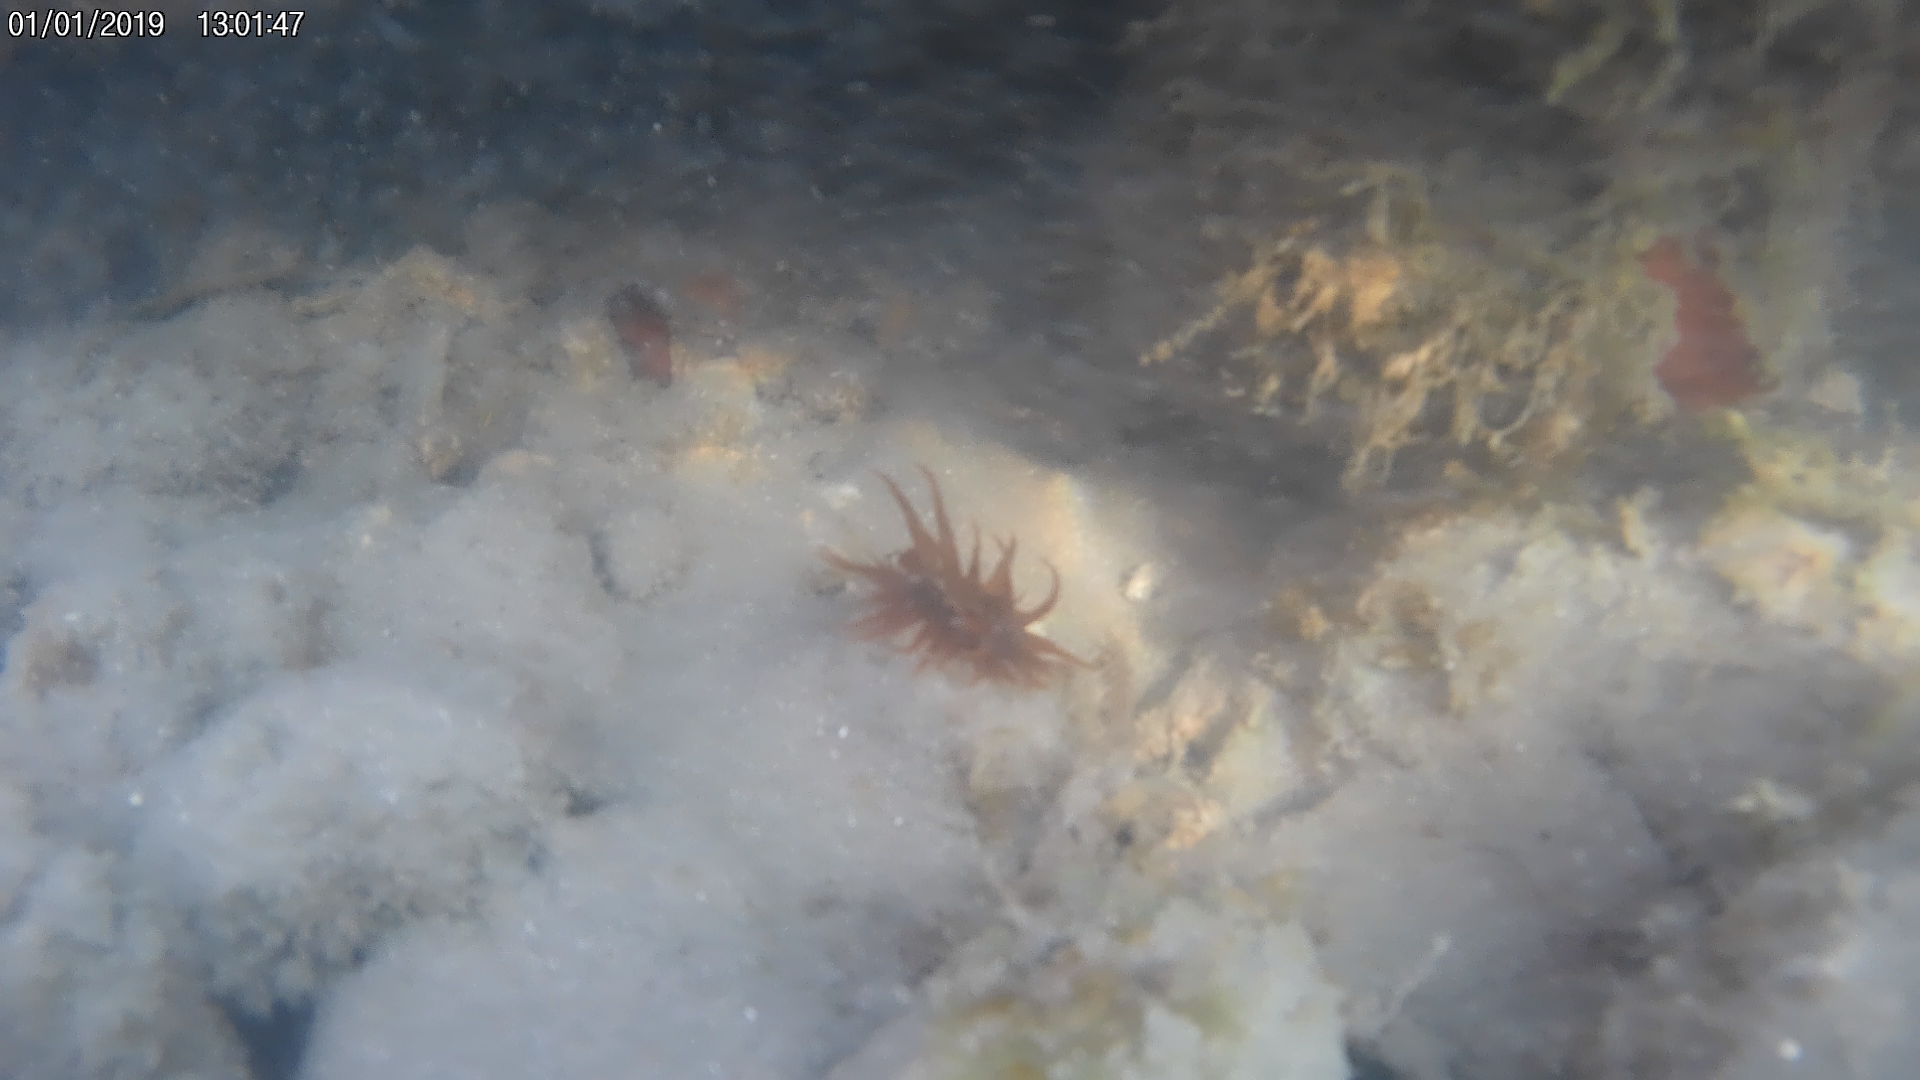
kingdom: Animalia
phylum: Cnidaria
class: Anthozoa
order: Actiniaria
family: Actiniidae
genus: Anemonia
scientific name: Anemonia sargassensis
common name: Sargassum anemone
